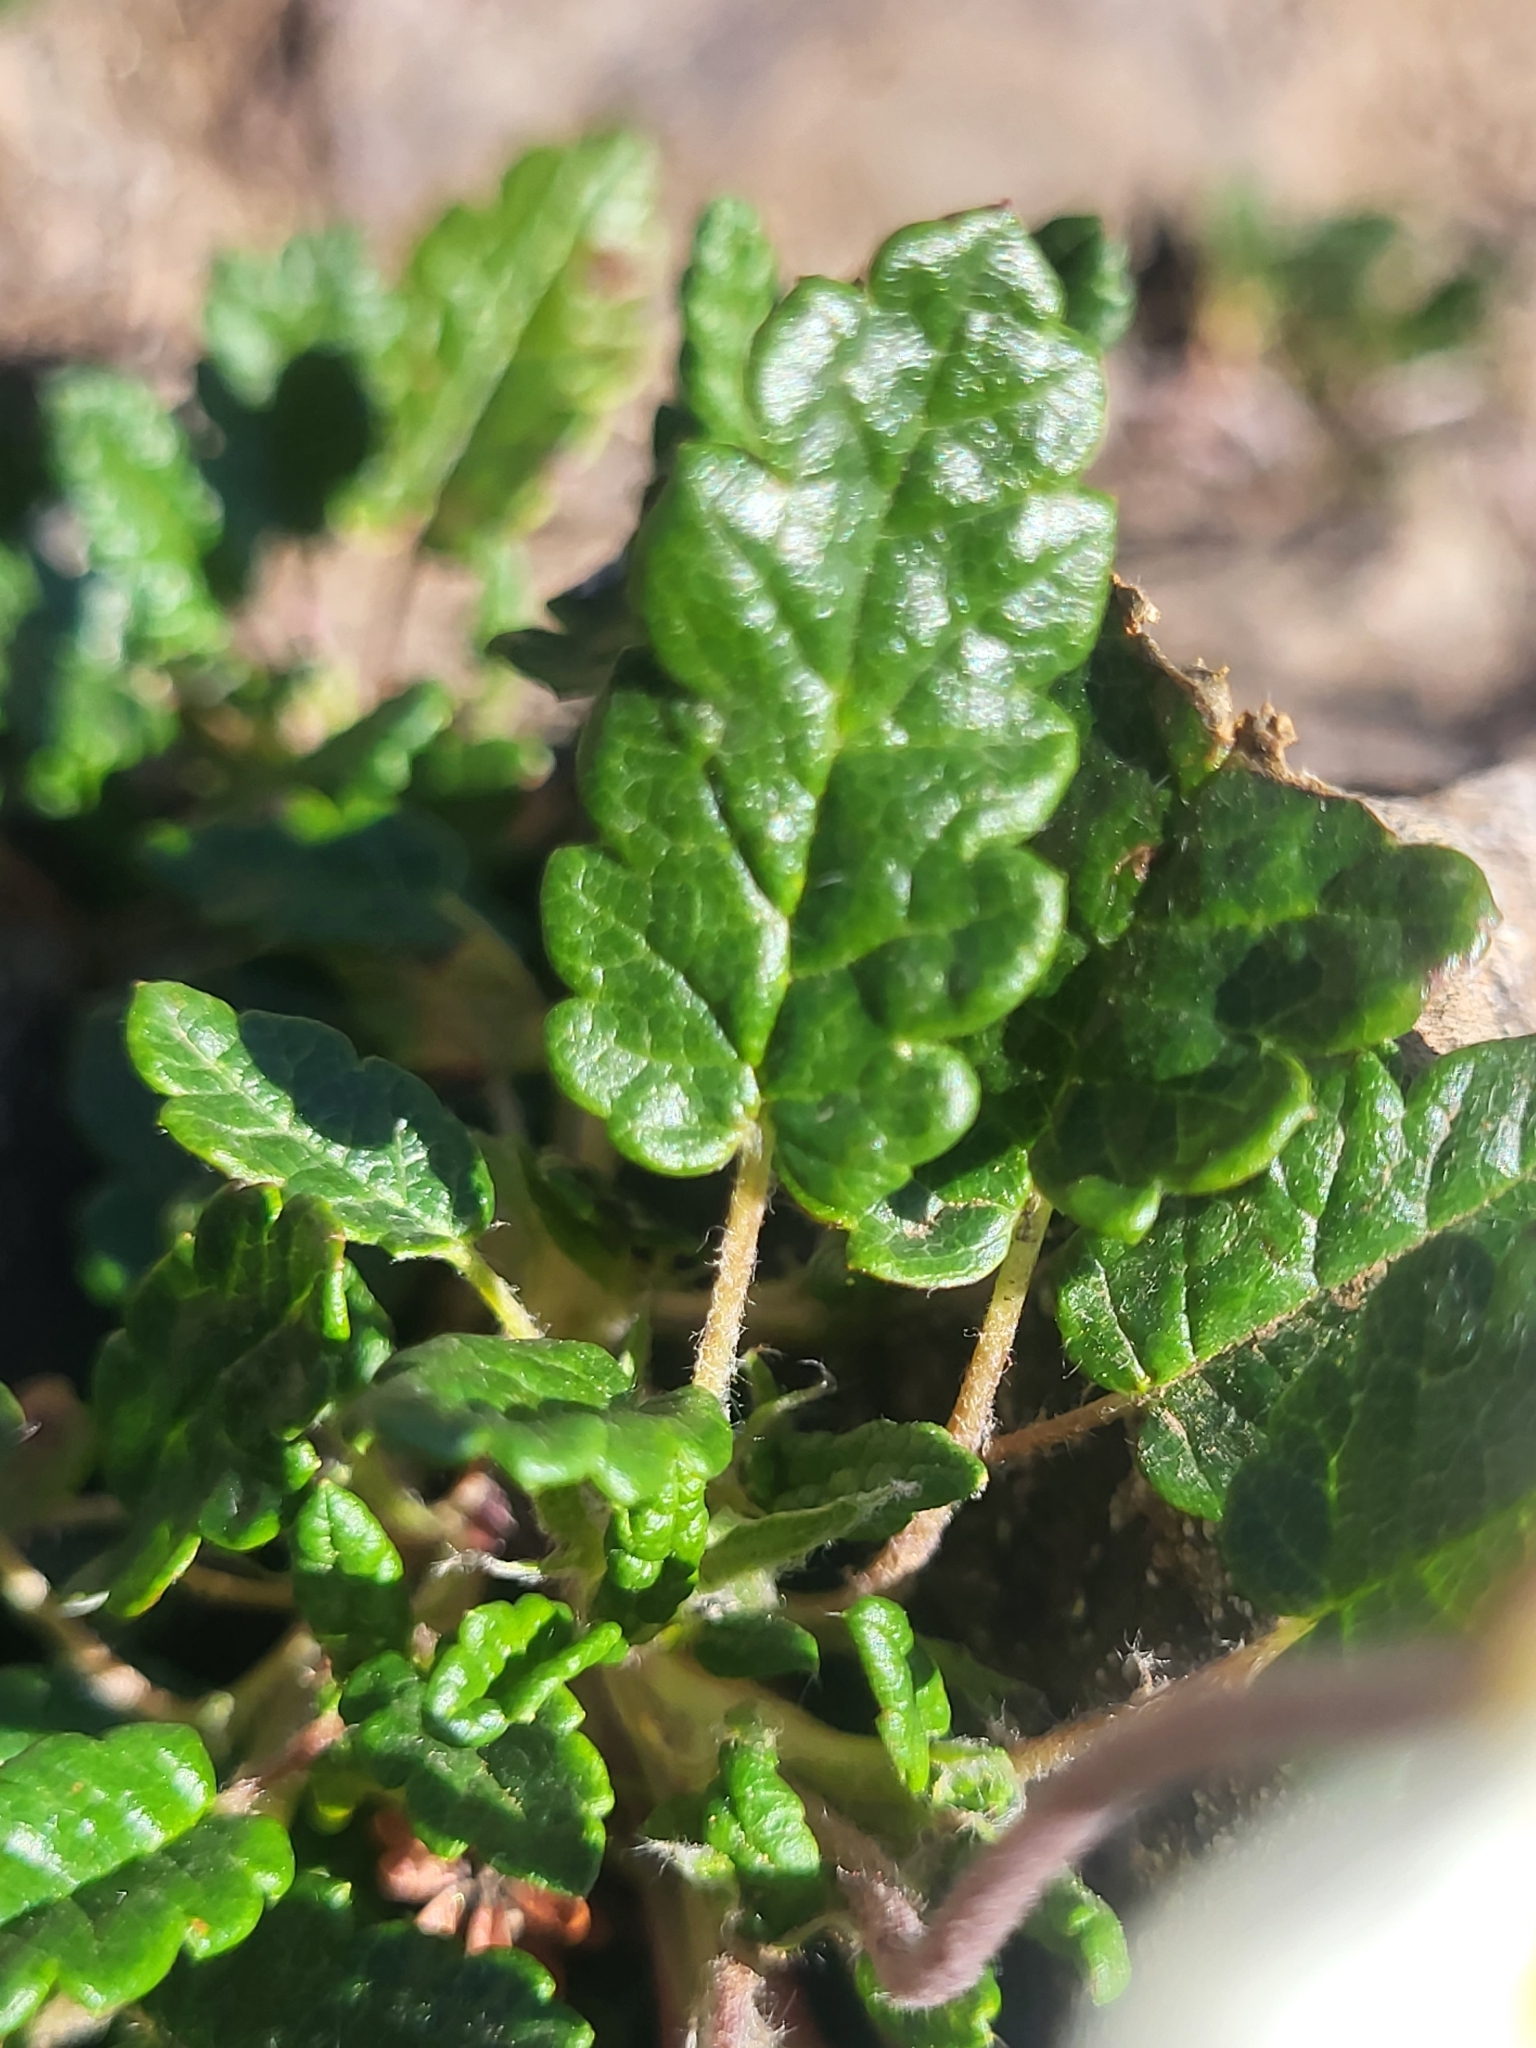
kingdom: Plantae
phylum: Tracheophyta
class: Magnoliopsida
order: Rosales
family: Rosaceae
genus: Dryas
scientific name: Dryas octopetala
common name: Eight-petal mountain-avens
